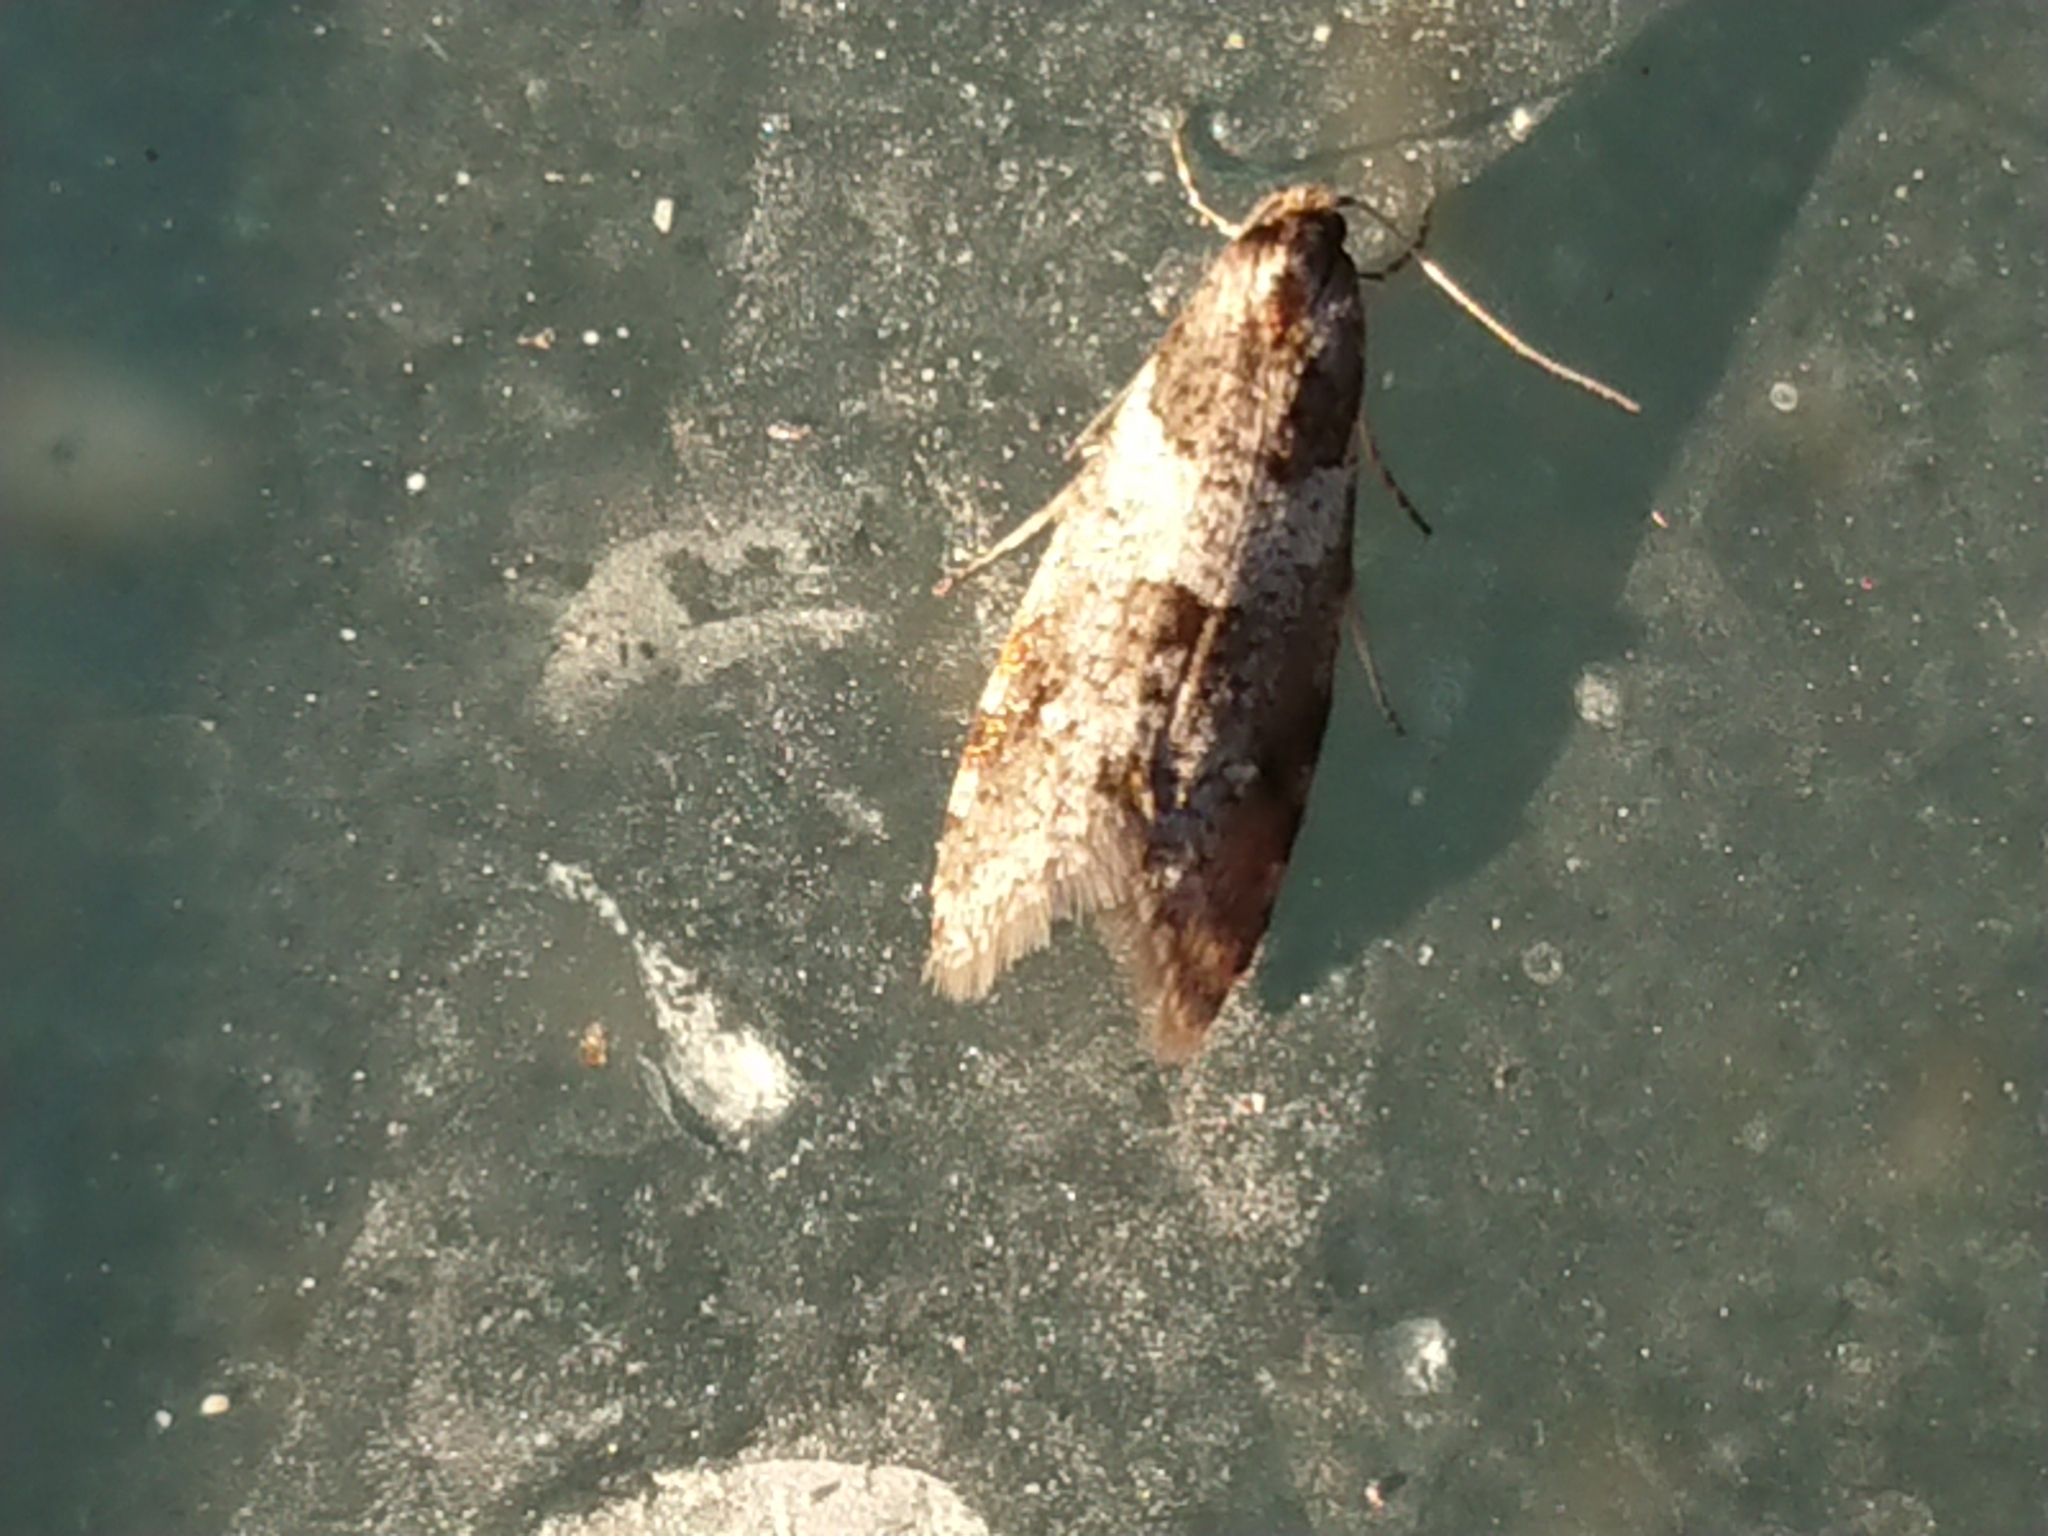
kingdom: Animalia
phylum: Arthropoda
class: Insecta
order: Lepidoptera
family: Psychidae
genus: Lepidoscia
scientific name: Lepidoscia heliochares
